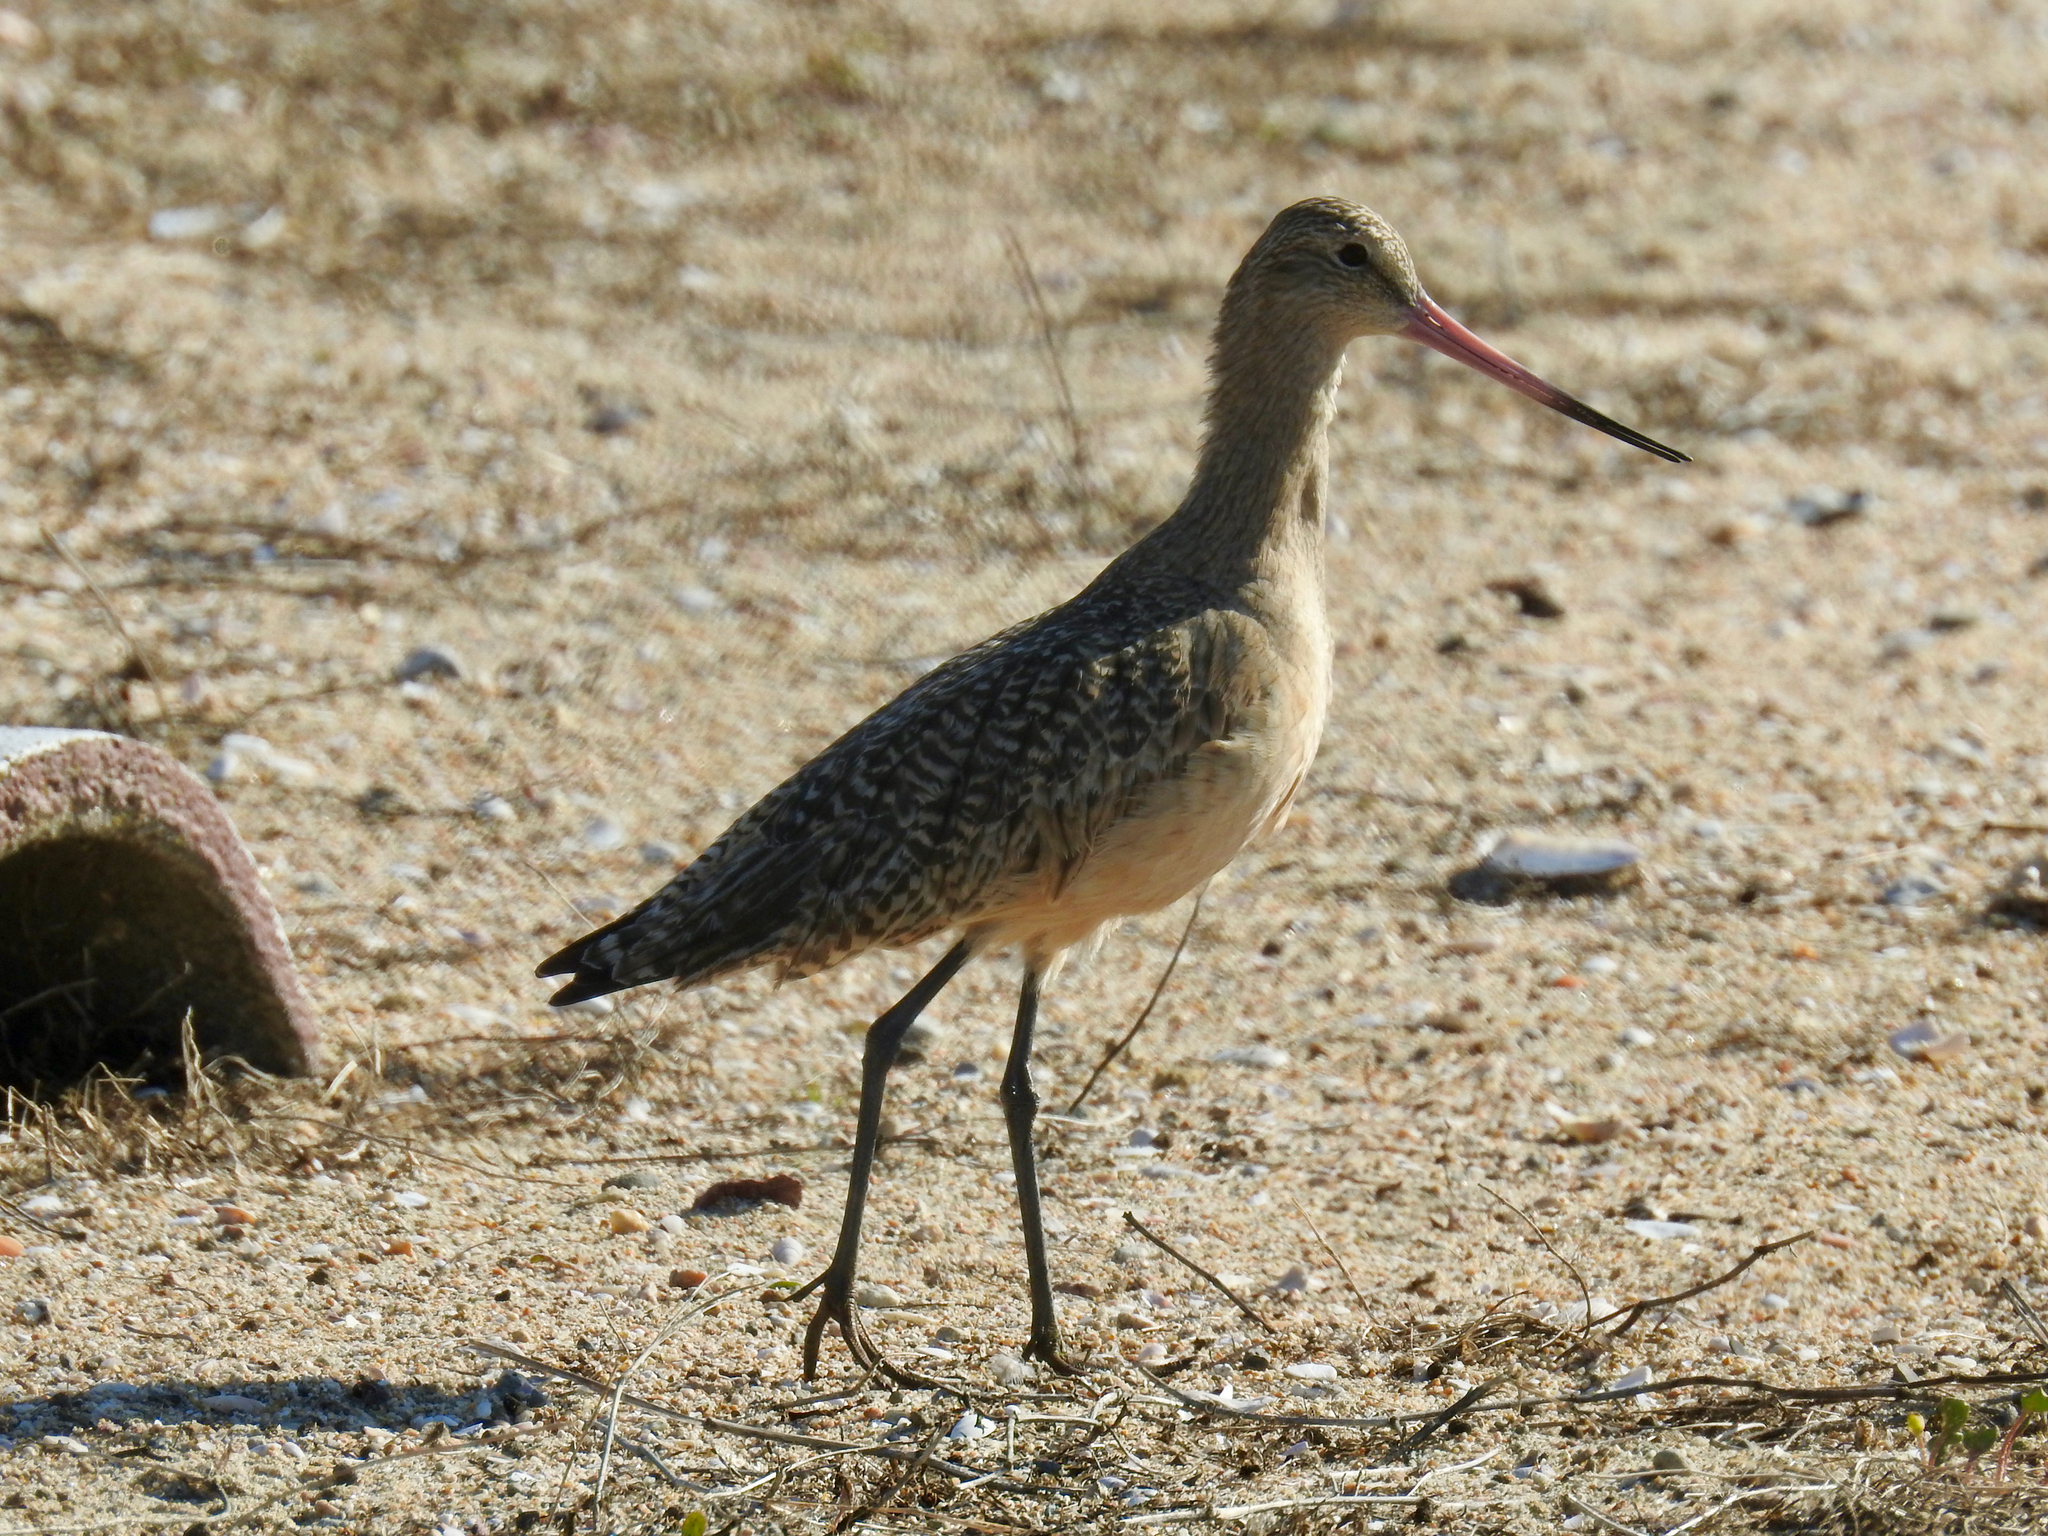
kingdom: Animalia
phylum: Chordata
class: Aves
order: Charadriiformes
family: Scolopacidae
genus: Limosa
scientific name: Limosa fedoa
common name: Marbled godwit
